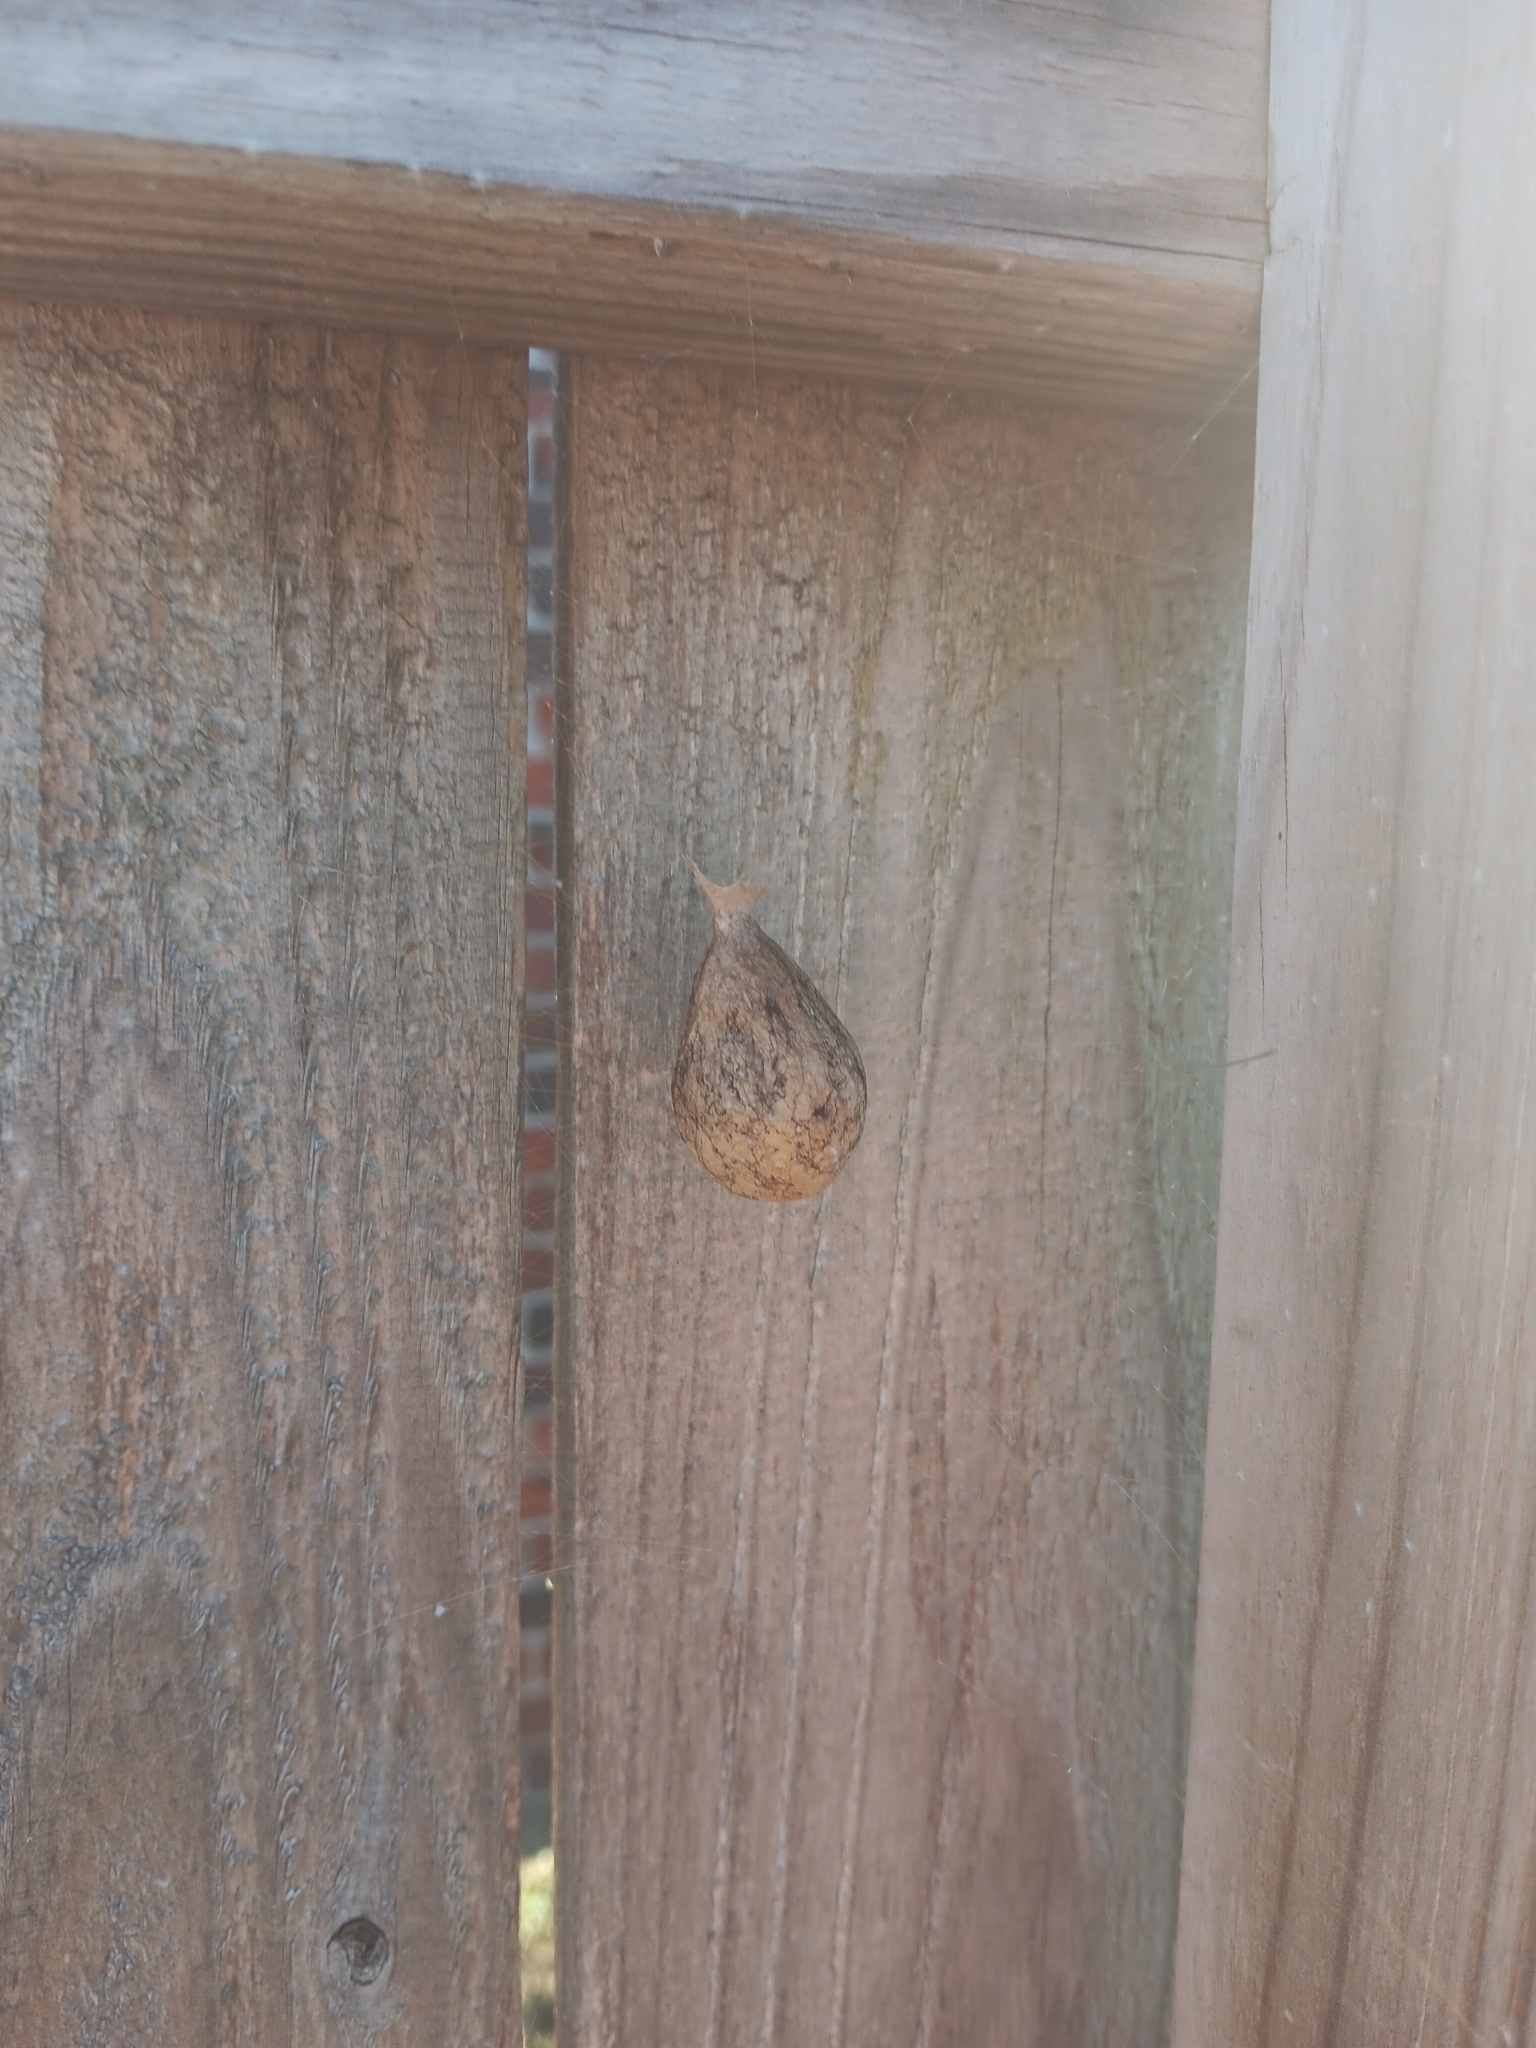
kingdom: Animalia
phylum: Arthropoda
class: Arachnida
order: Araneae
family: Araneidae
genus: Argiope
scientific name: Argiope aurantia
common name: Orb weavers
